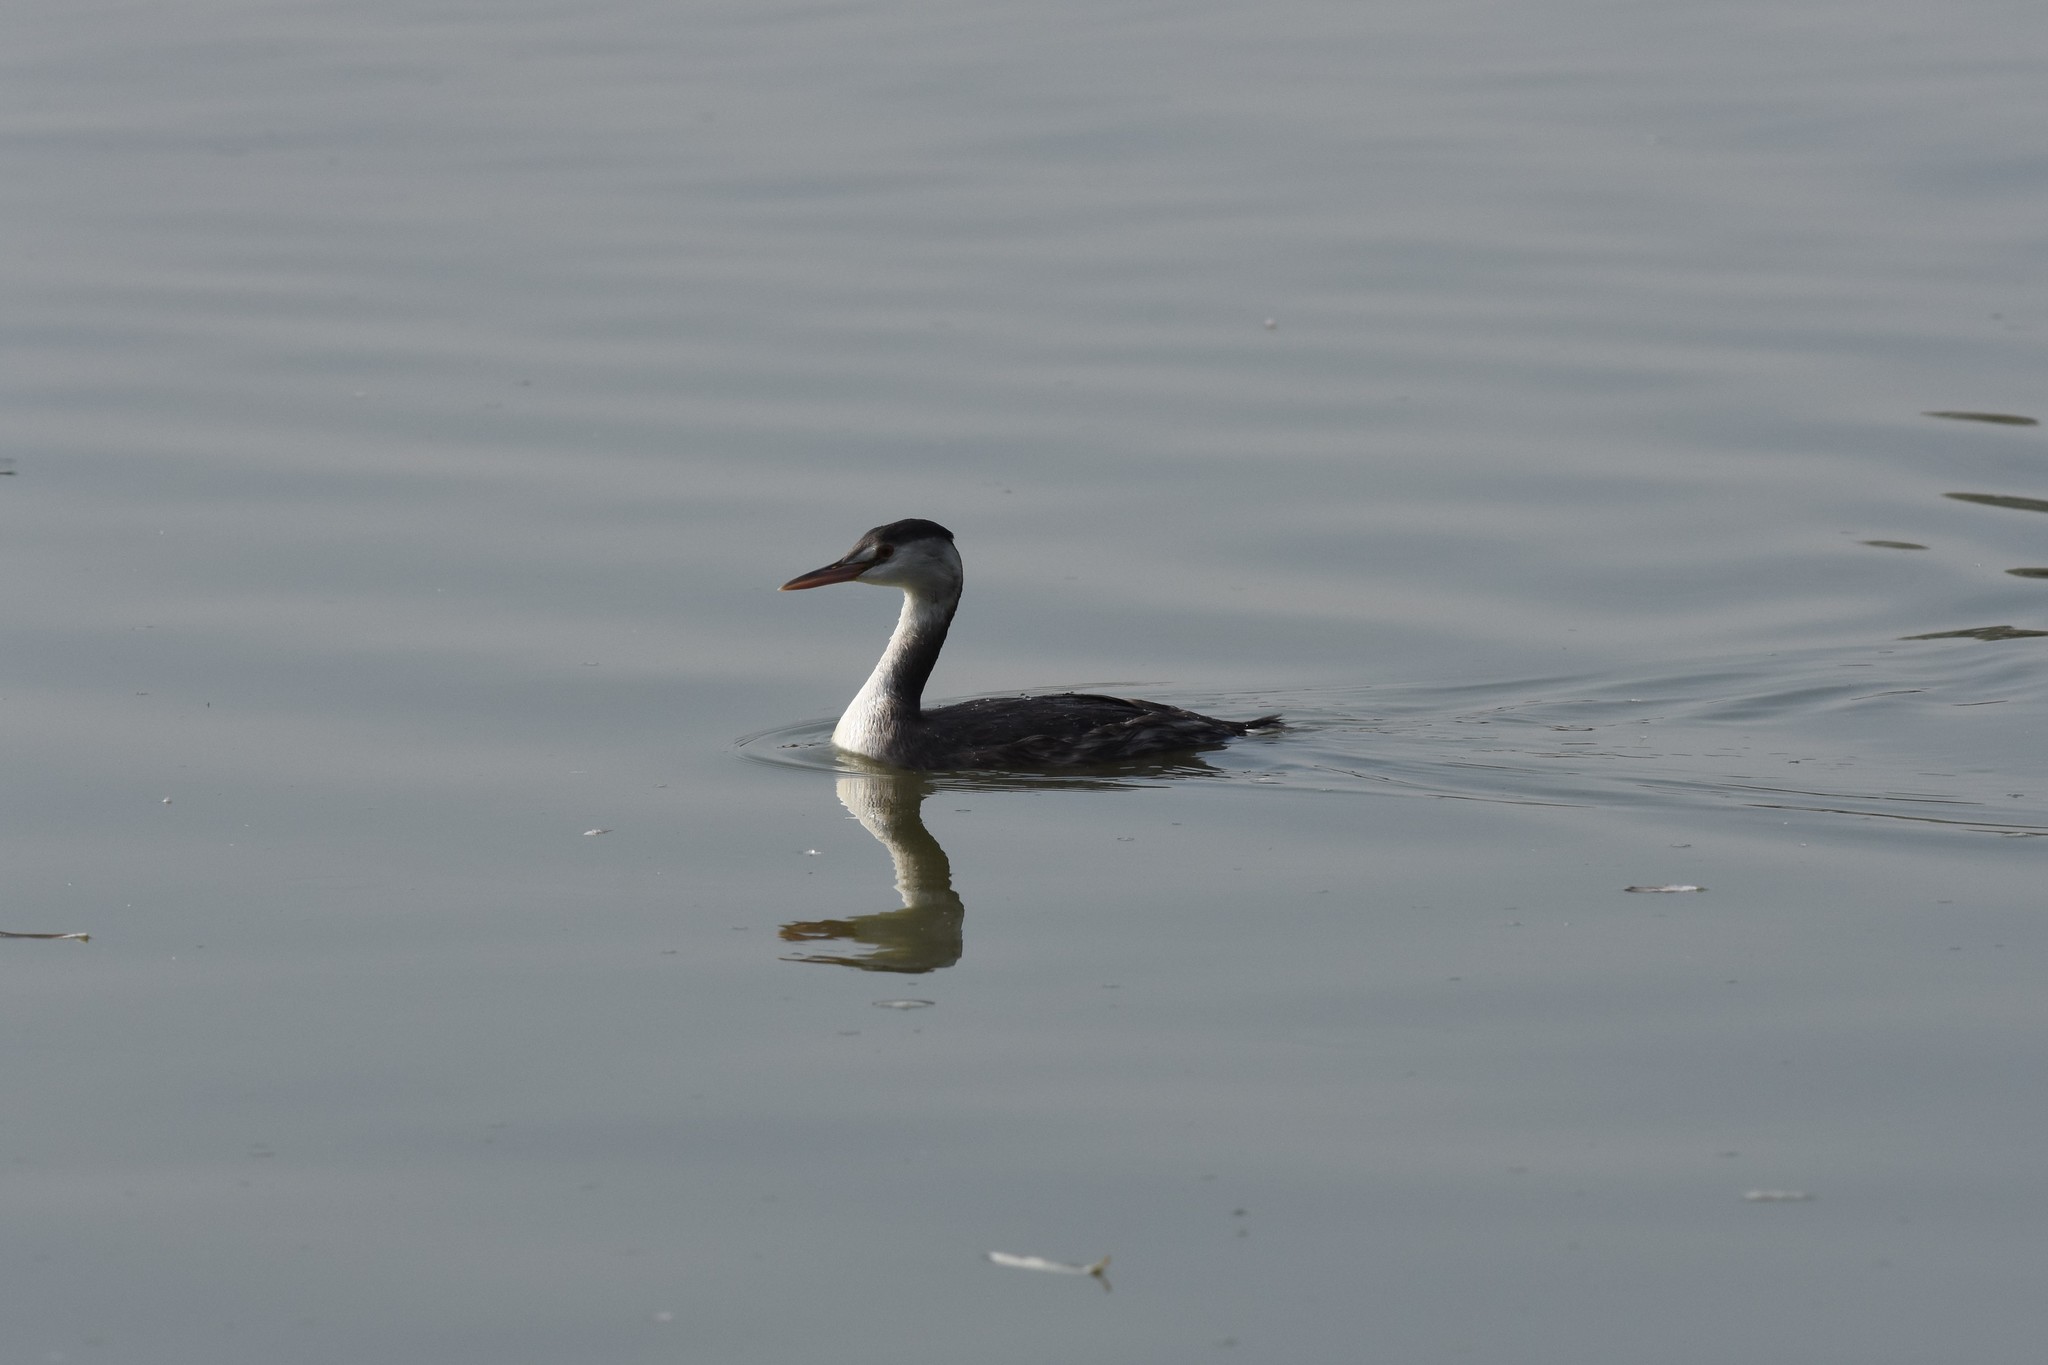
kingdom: Animalia
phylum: Chordata
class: Aves
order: Podicipediformes
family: Podicipedidae
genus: Podiceps
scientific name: Podiceps cristatus
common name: Great crested grebe
